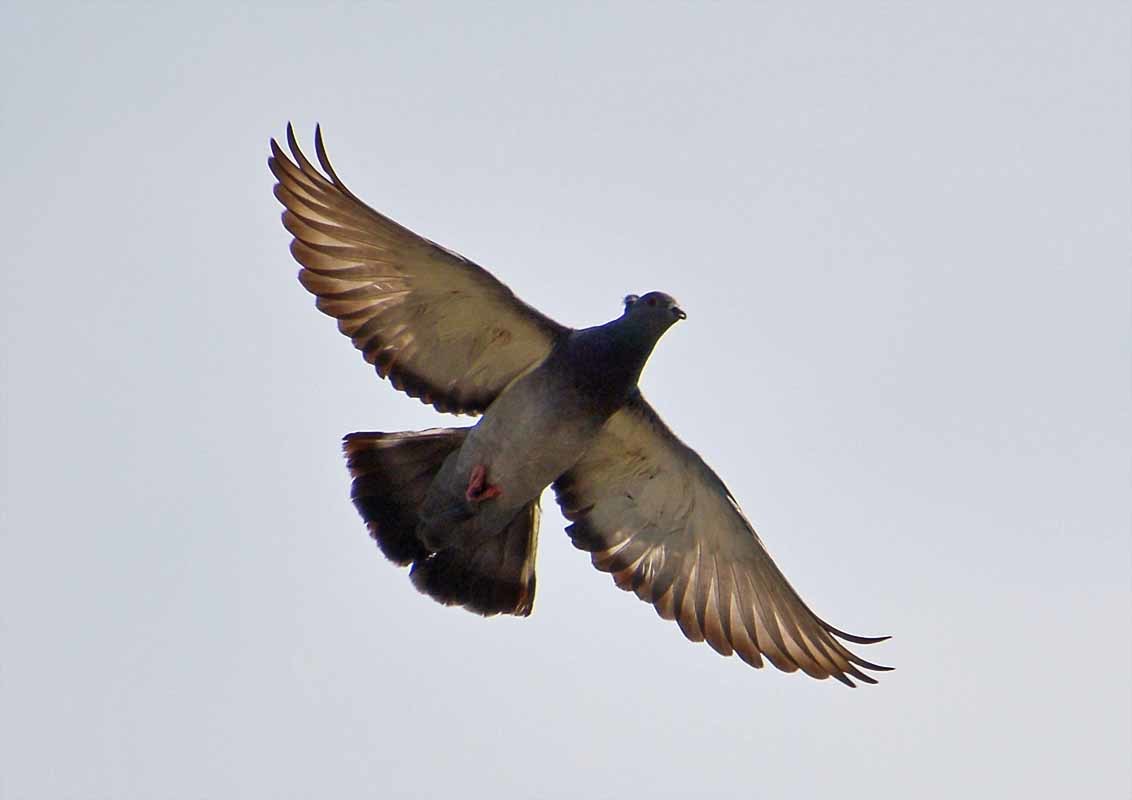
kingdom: Animalia
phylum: Chordata
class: Aves
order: Columbiformes
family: Columbidae
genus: Columba
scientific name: Columba livia
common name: Rock pigeon
